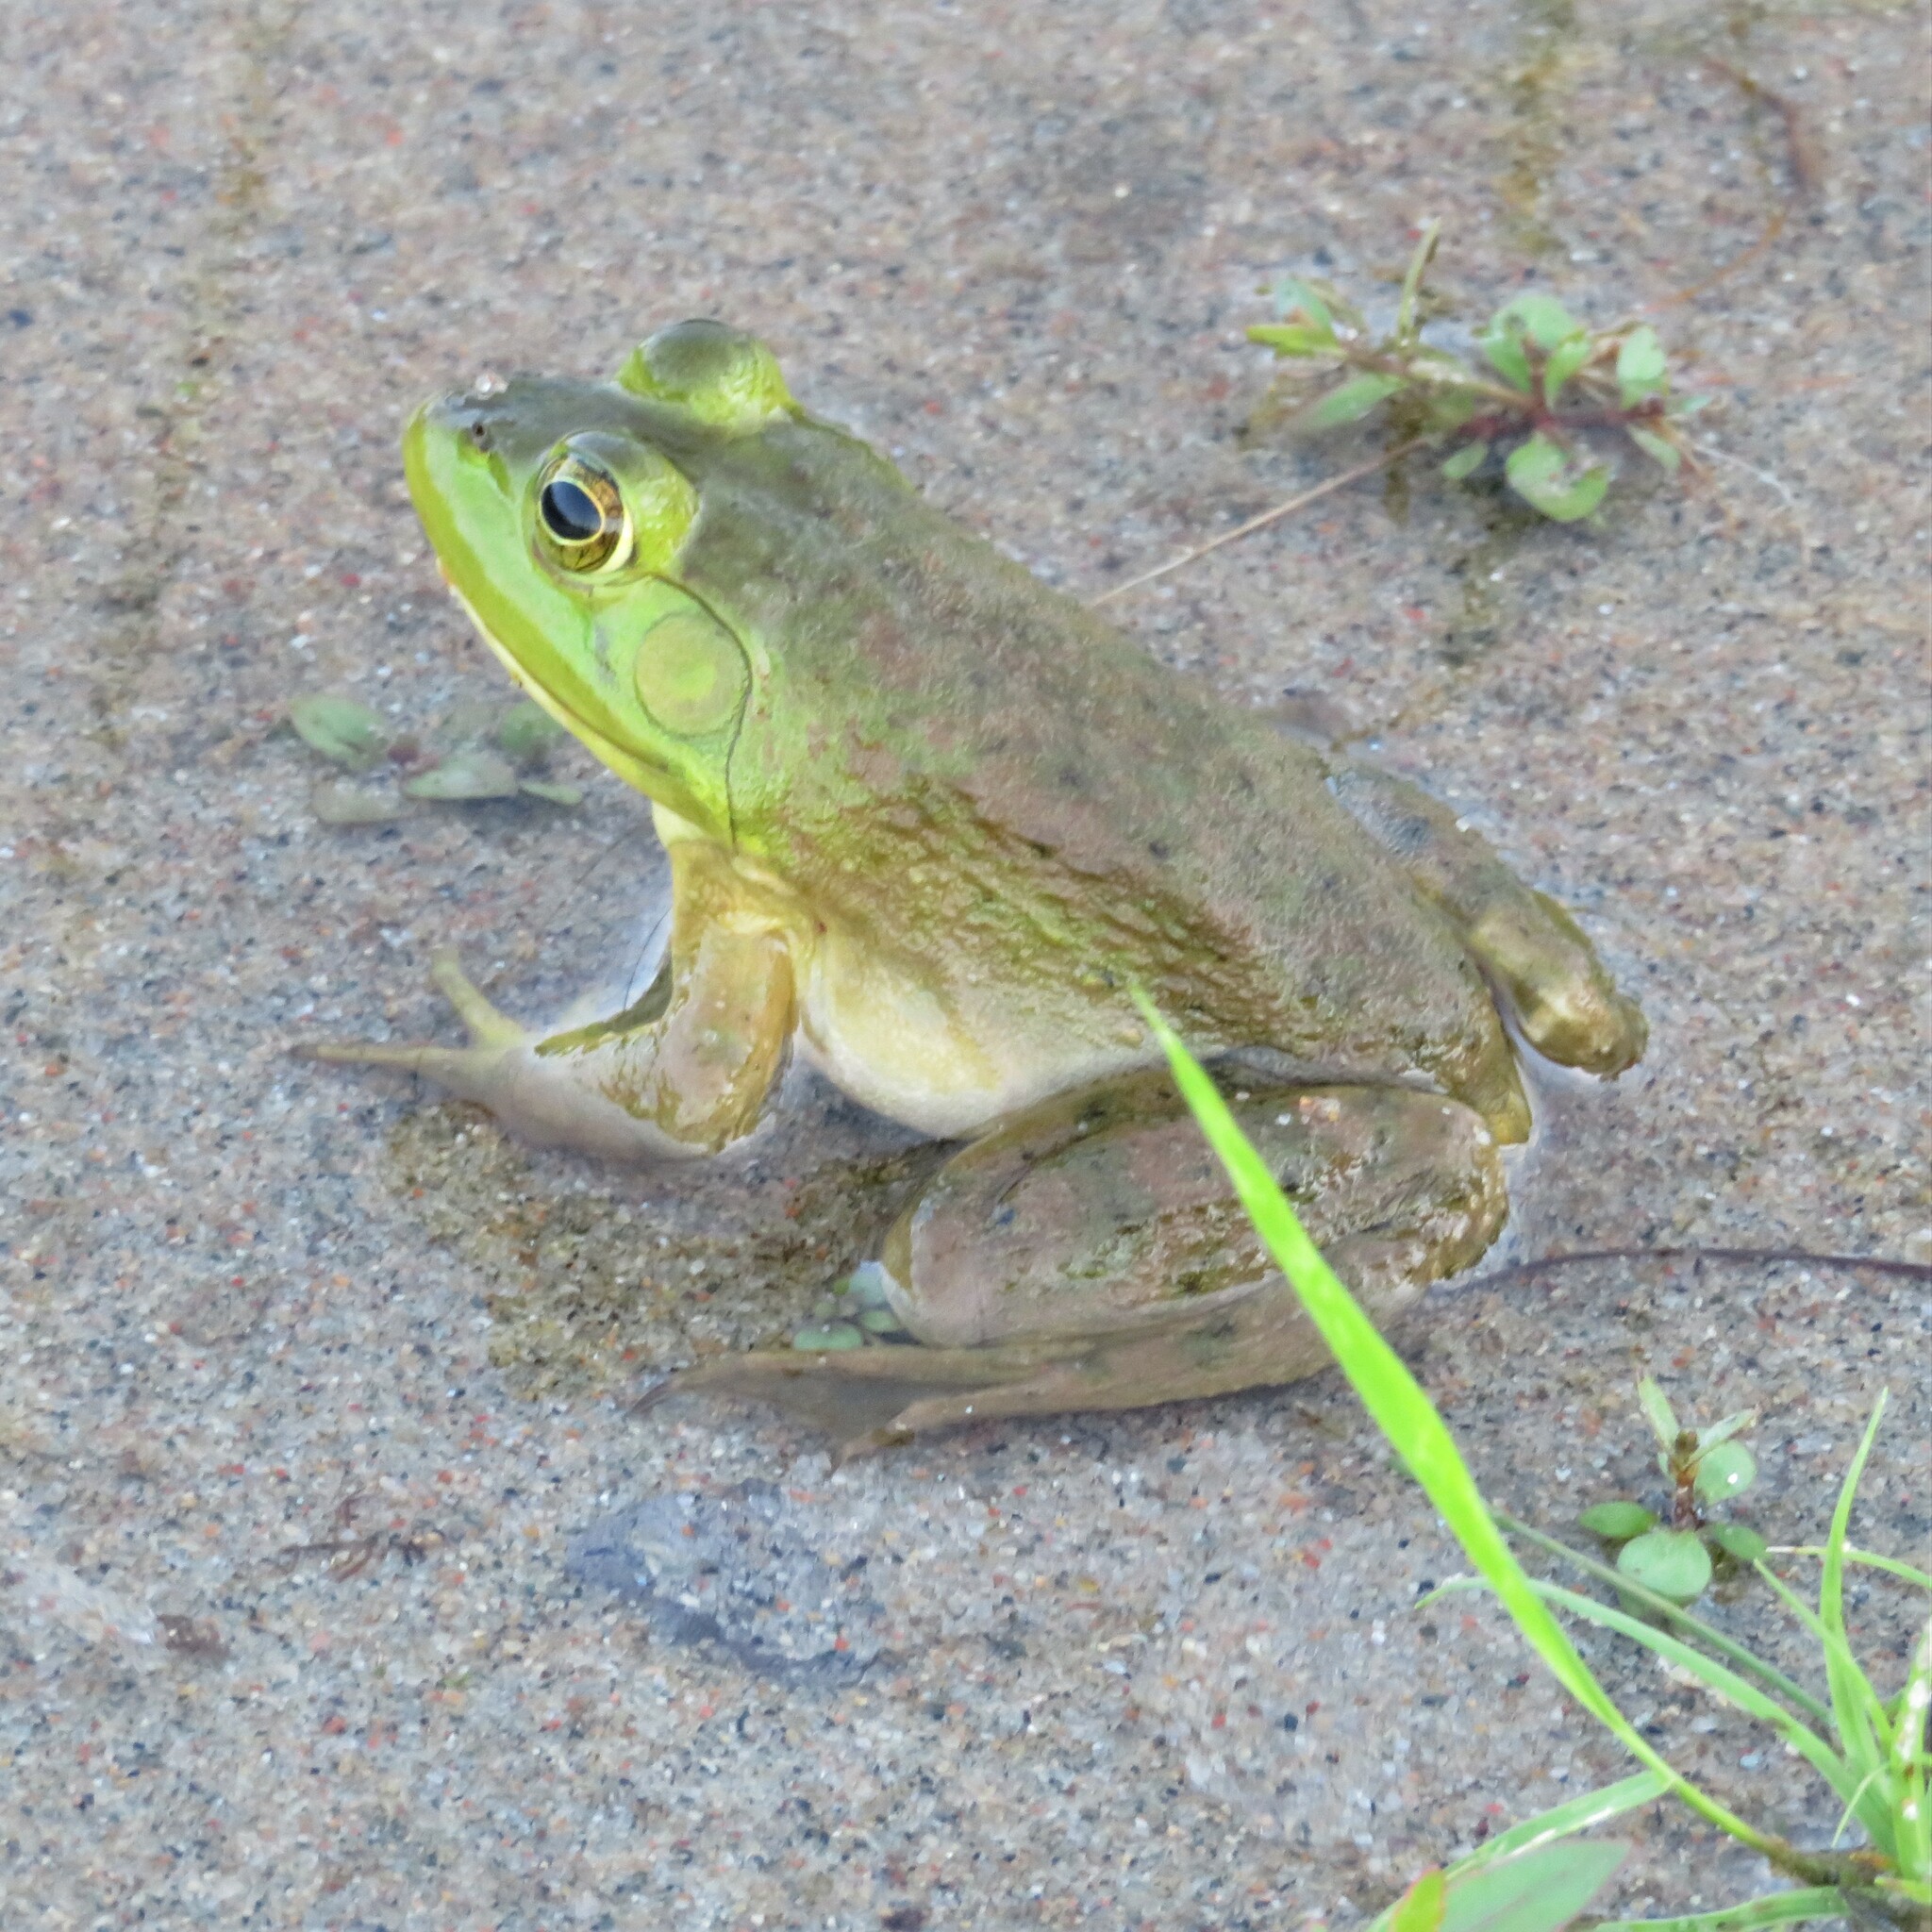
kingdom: Animalia
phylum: Chordata
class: Amphibia
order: Anura
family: Ranidae
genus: Lithobates
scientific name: Lithobates catesbeianus
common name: American bullfrog
